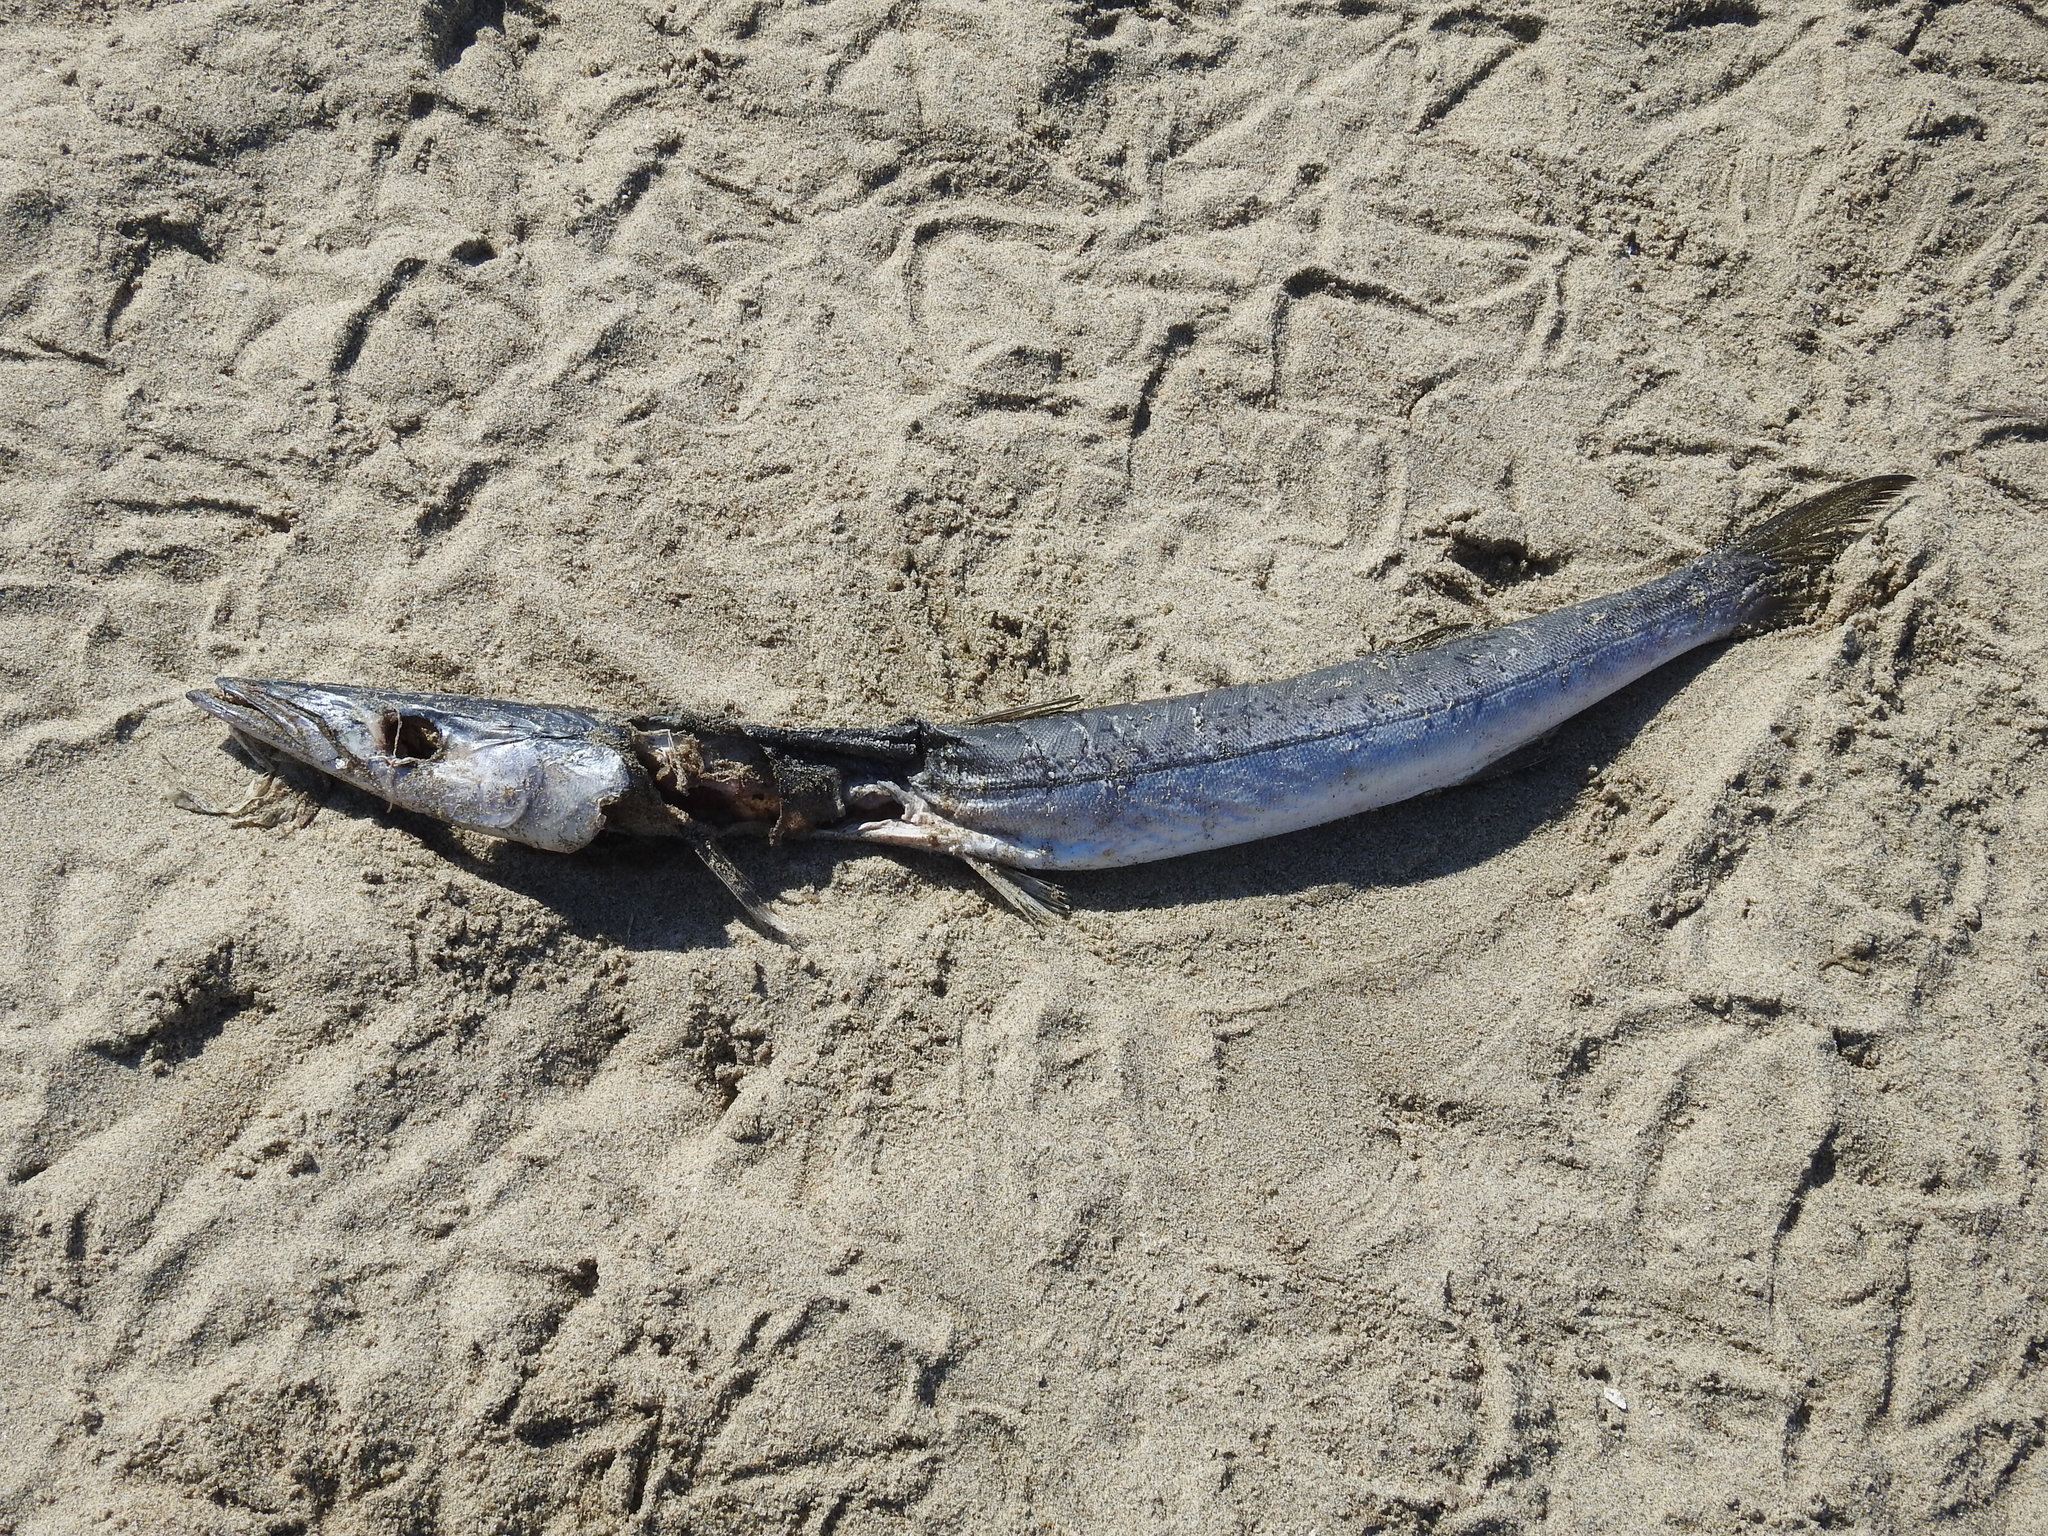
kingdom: Animalia
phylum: Chordata
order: Perciformes
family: Sphyraenidae
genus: Sphyraena
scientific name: Sphyraena argentea
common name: Pacific barracuda
